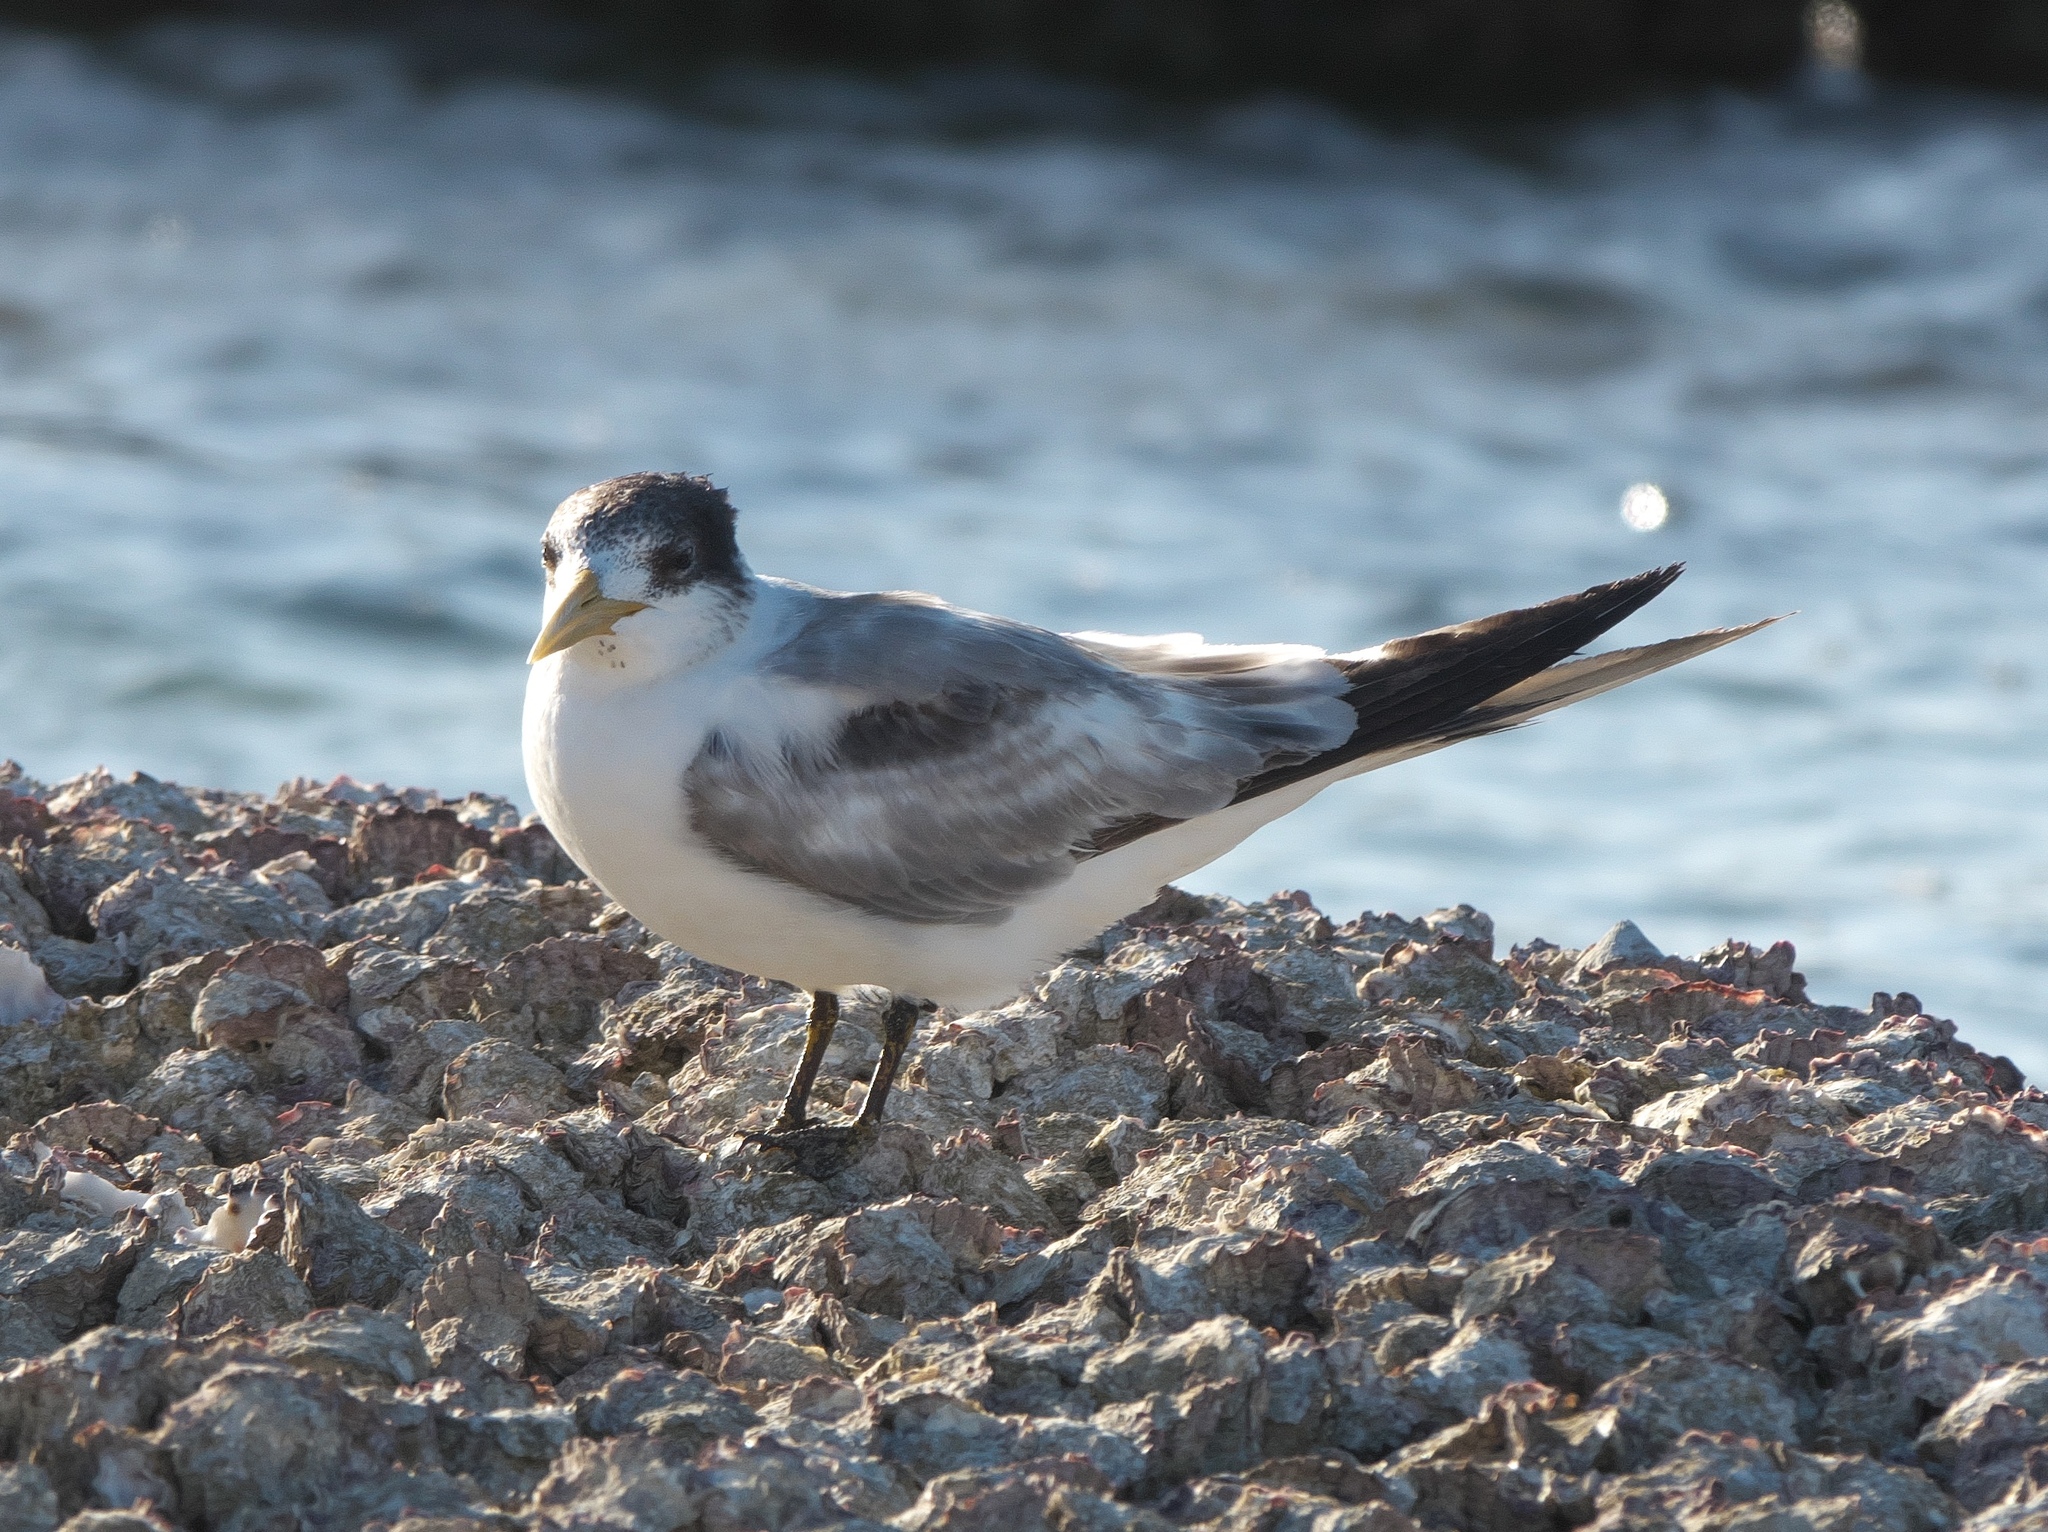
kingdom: Animalia
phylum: Chordata
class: Aves
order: Charadriiformes
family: Laridae
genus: Thalasseus
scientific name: Thalasseus bergii
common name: Greater crested tern
